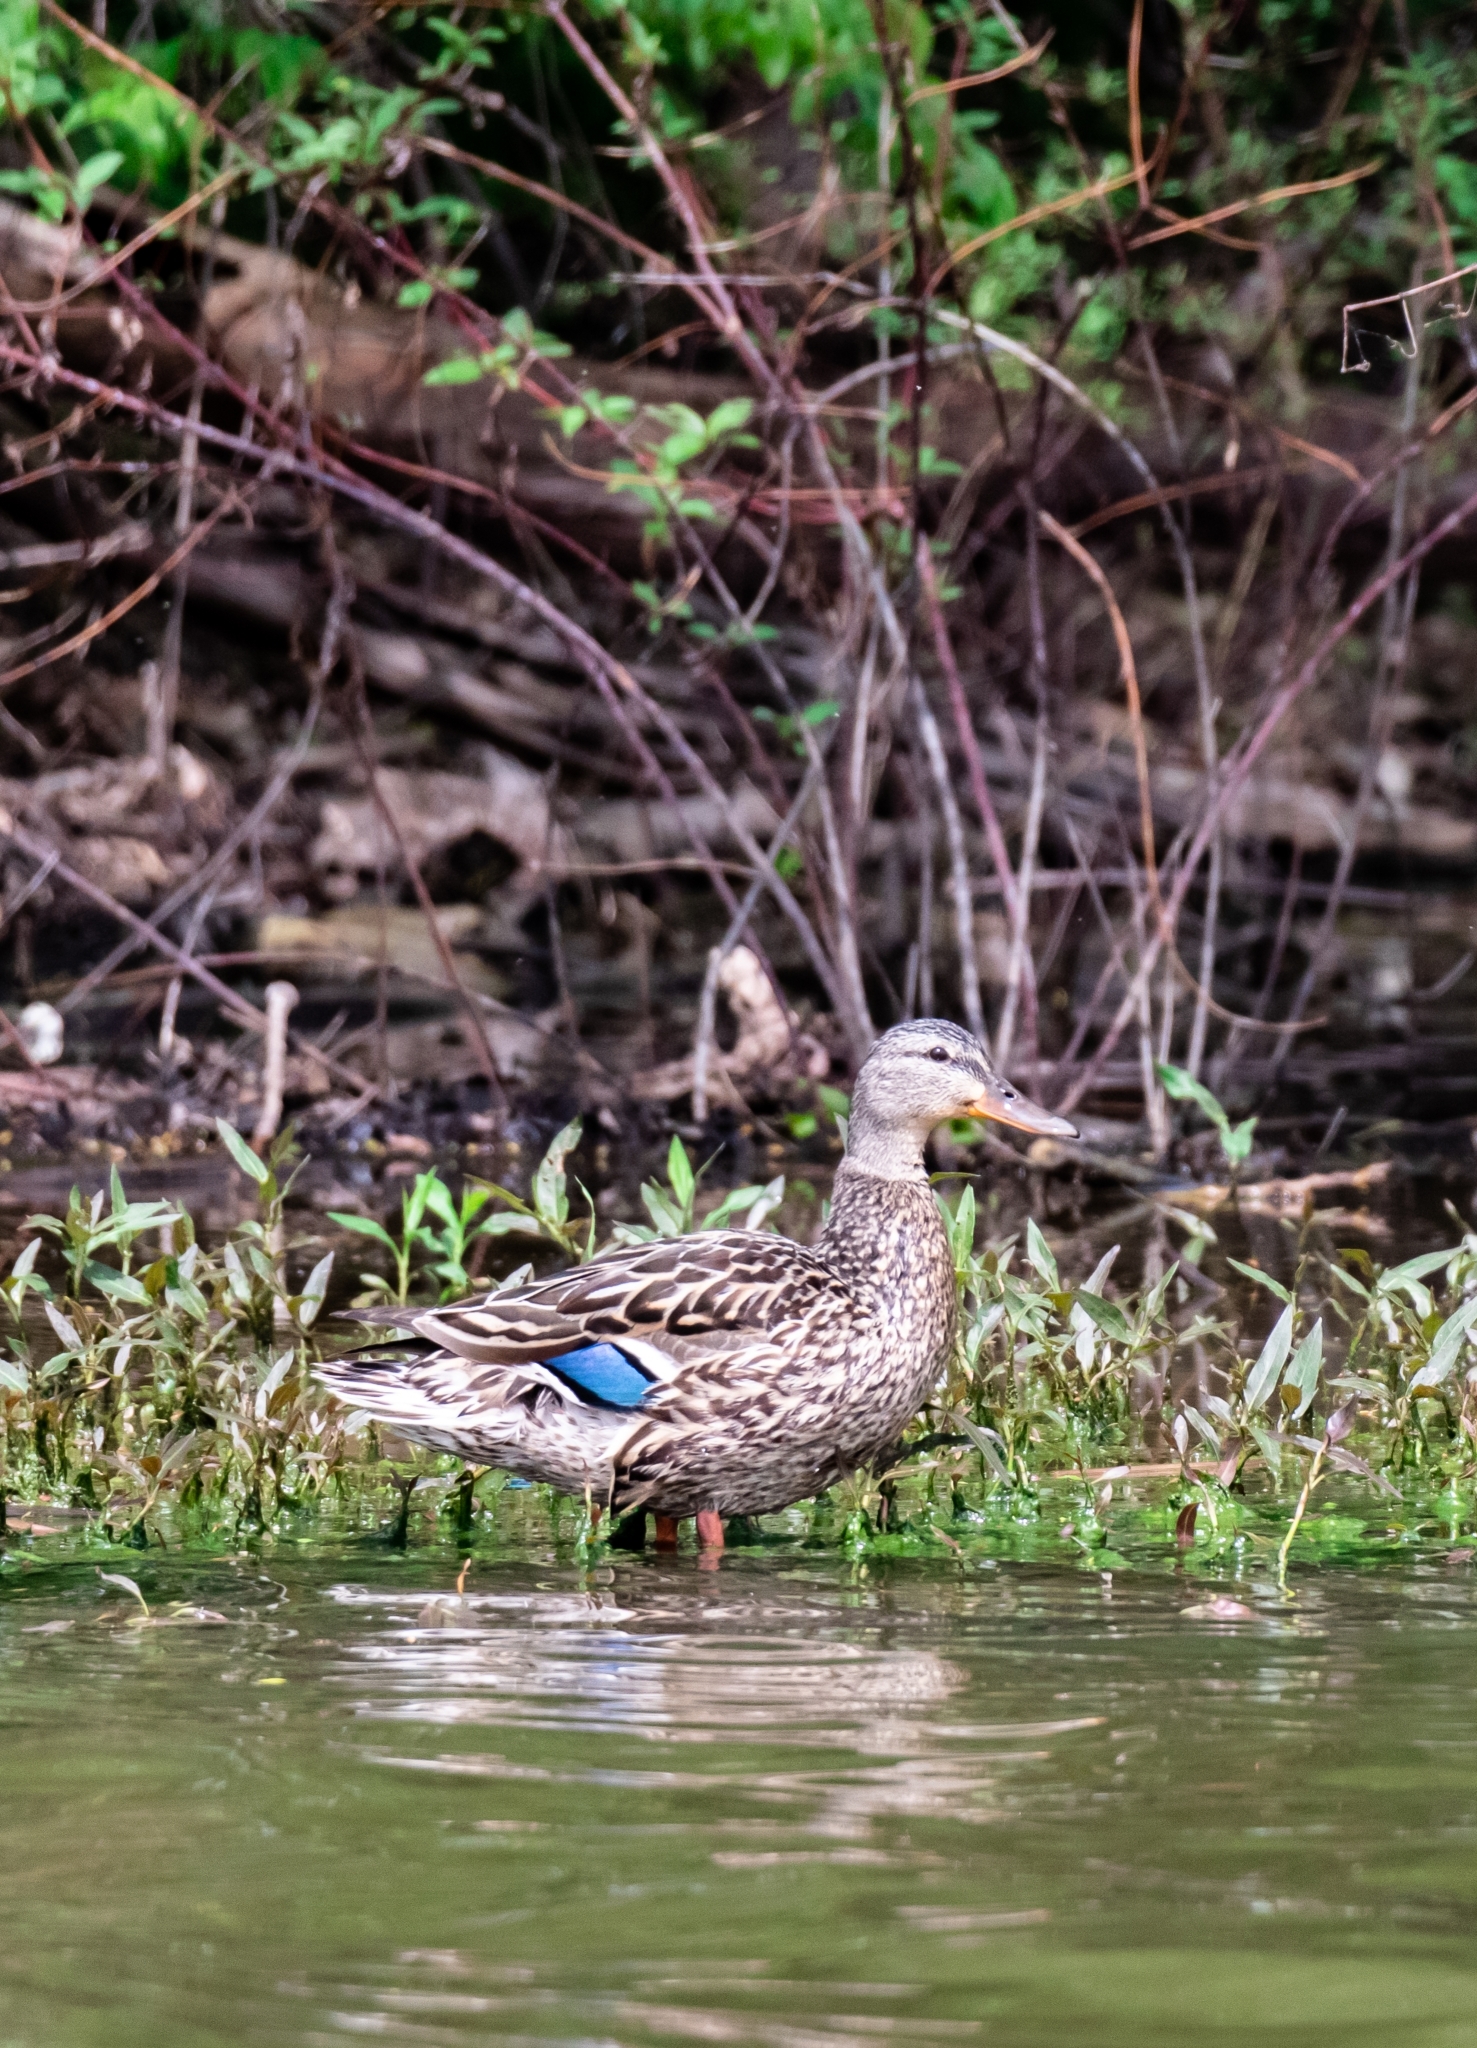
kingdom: Animalia
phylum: Chordata
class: Aves
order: Anseriformes
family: Anatidae
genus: Anas
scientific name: Anas platyrhynchos
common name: Mallard
